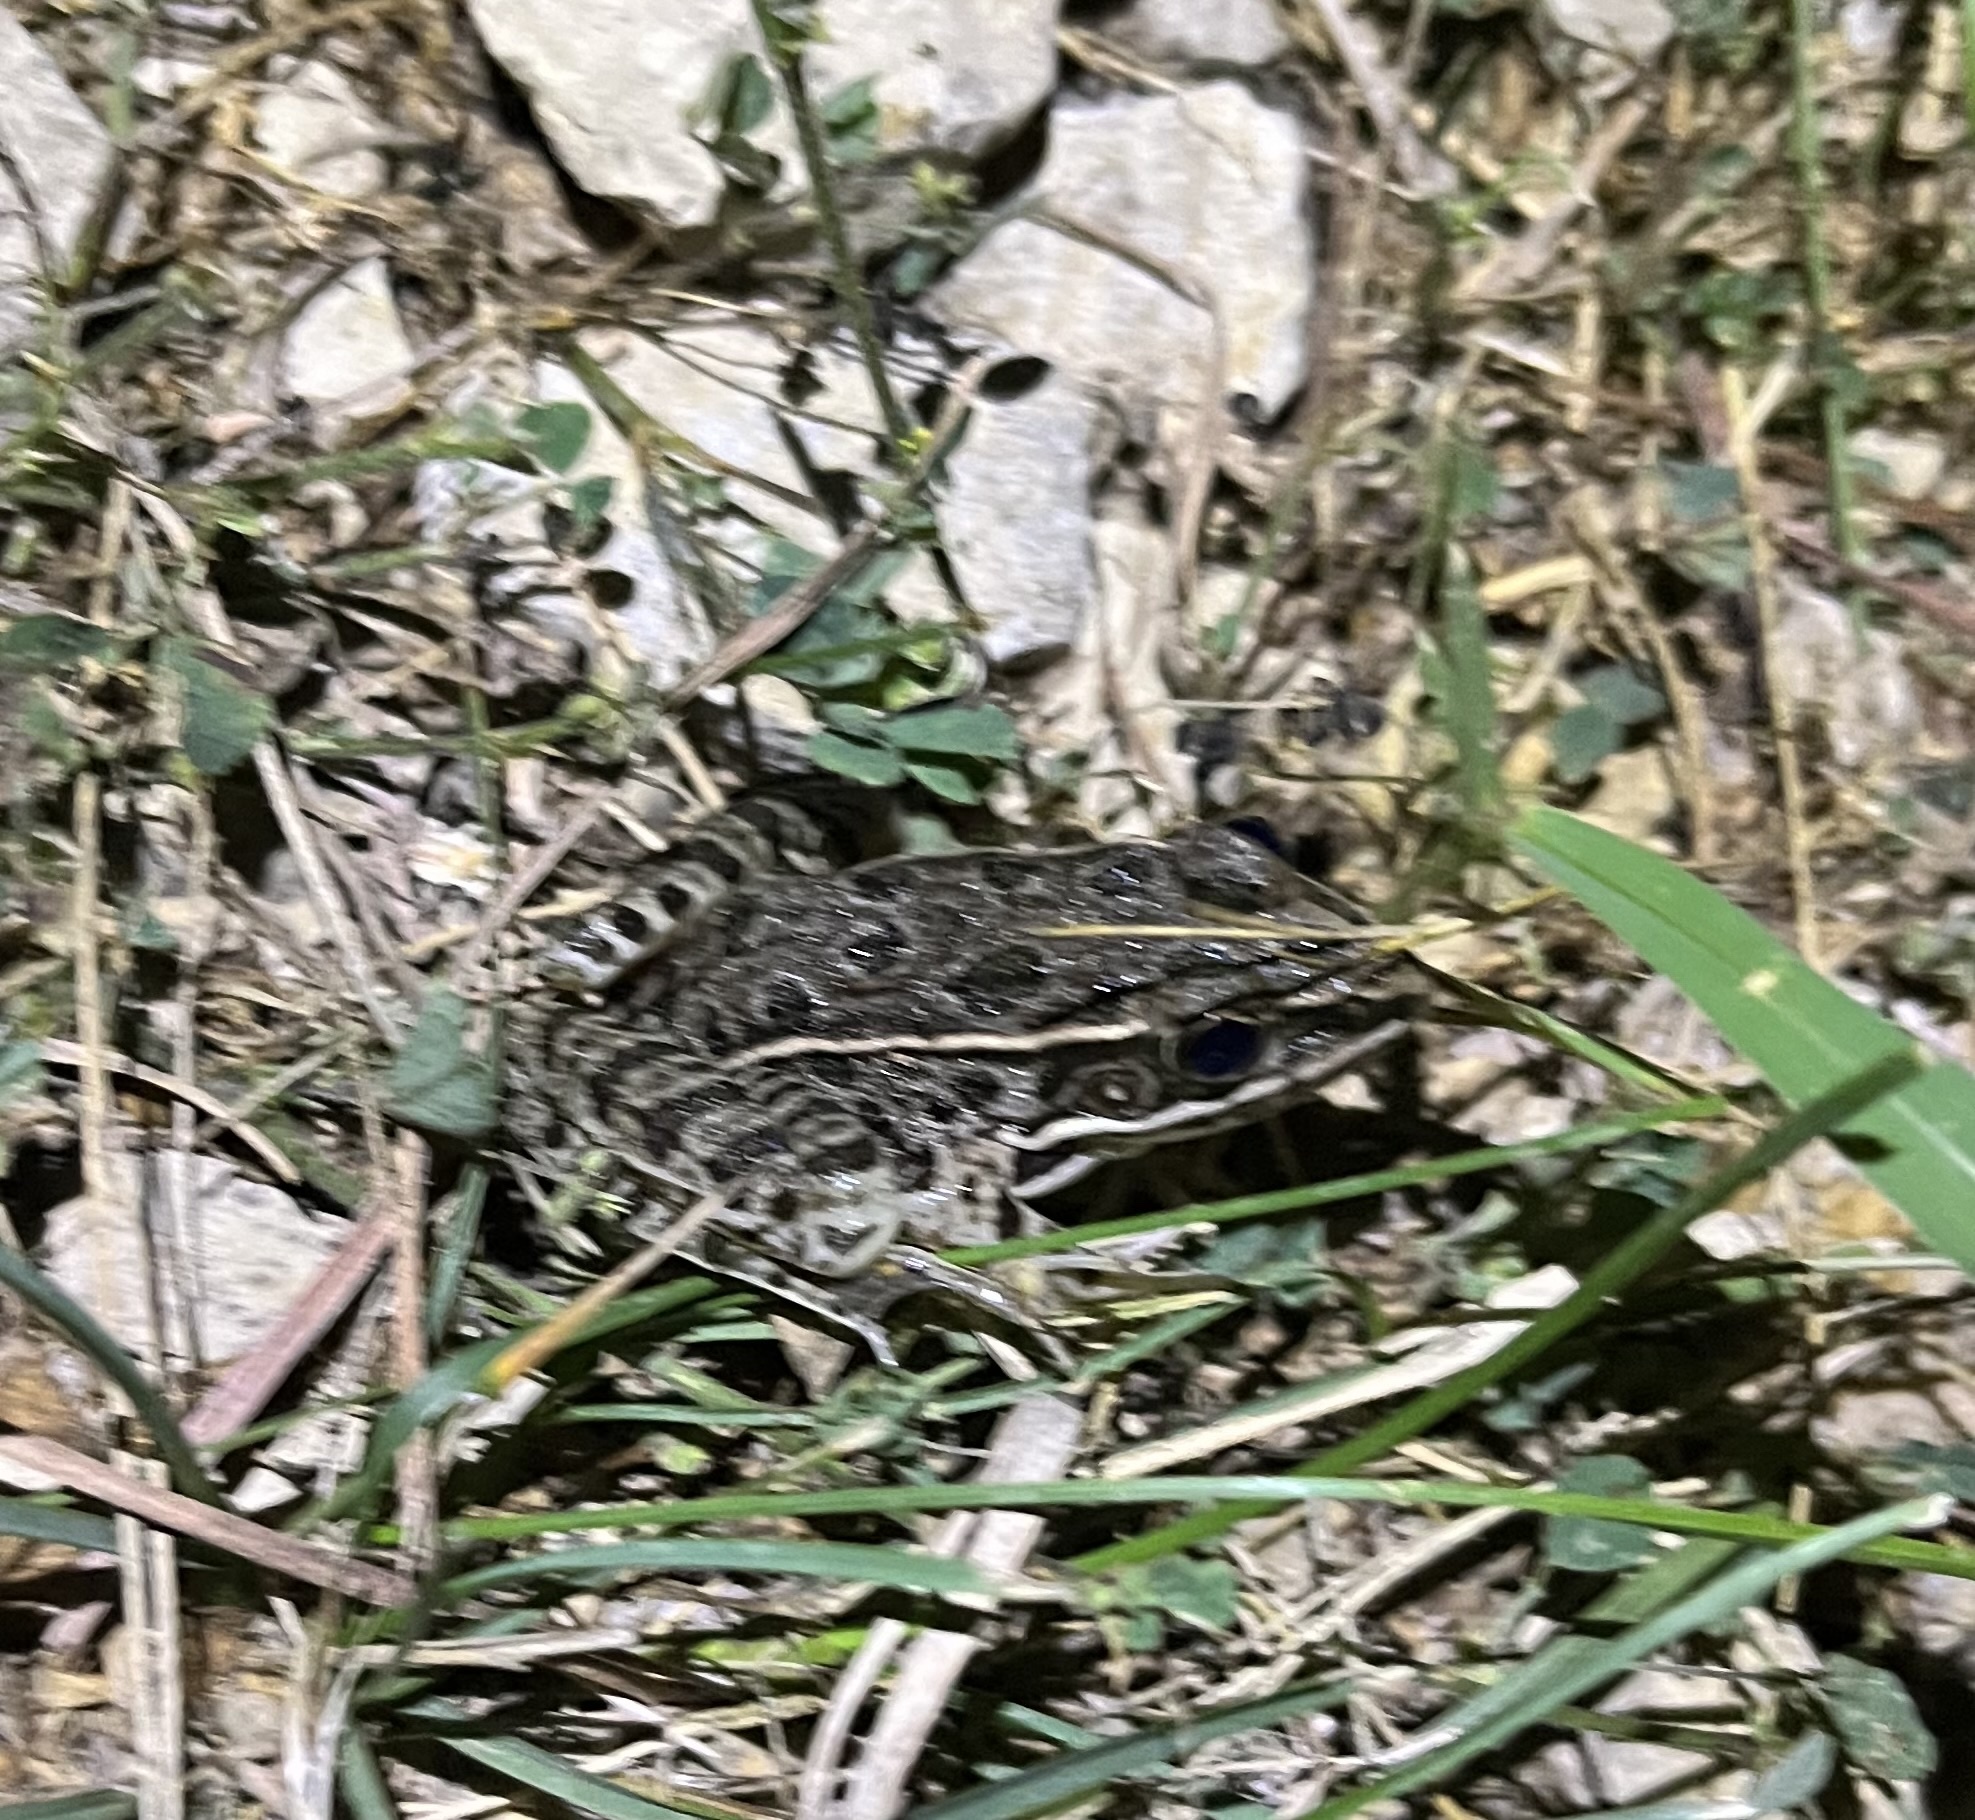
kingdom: Animalia
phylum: Chordata
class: Amphibia
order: Anura
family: Ranidae
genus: Lithobates
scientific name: Lithobates blairi
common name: Plains leopard frog
